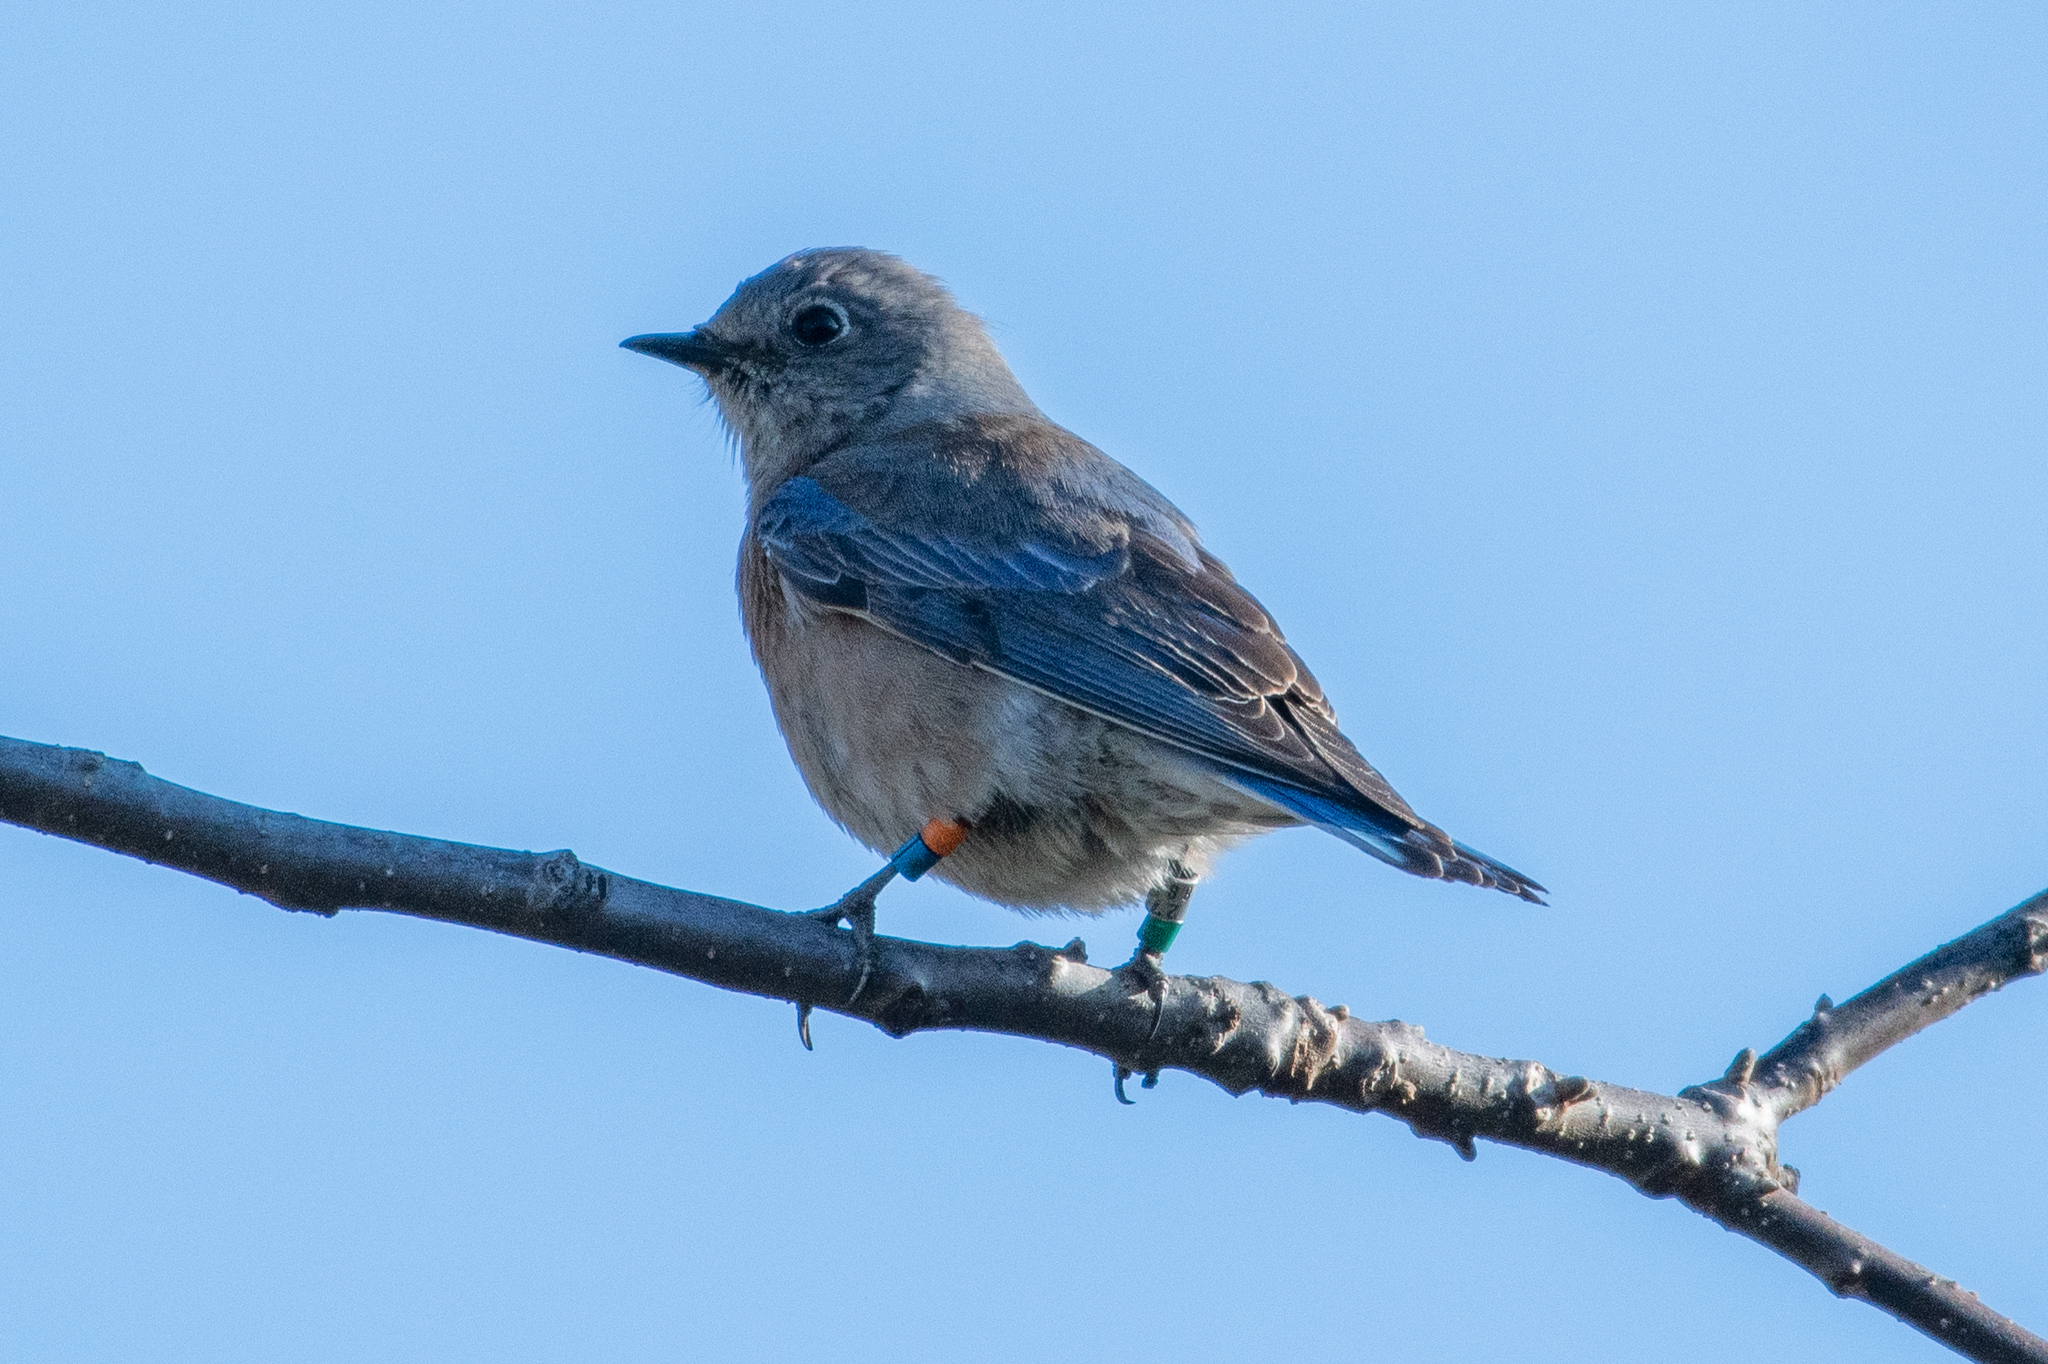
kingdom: Animalia
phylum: Chordata
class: Aves
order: Passeriformes
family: Turdidae
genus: Sialia
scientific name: Sialia mexicana
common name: Western bluebird
